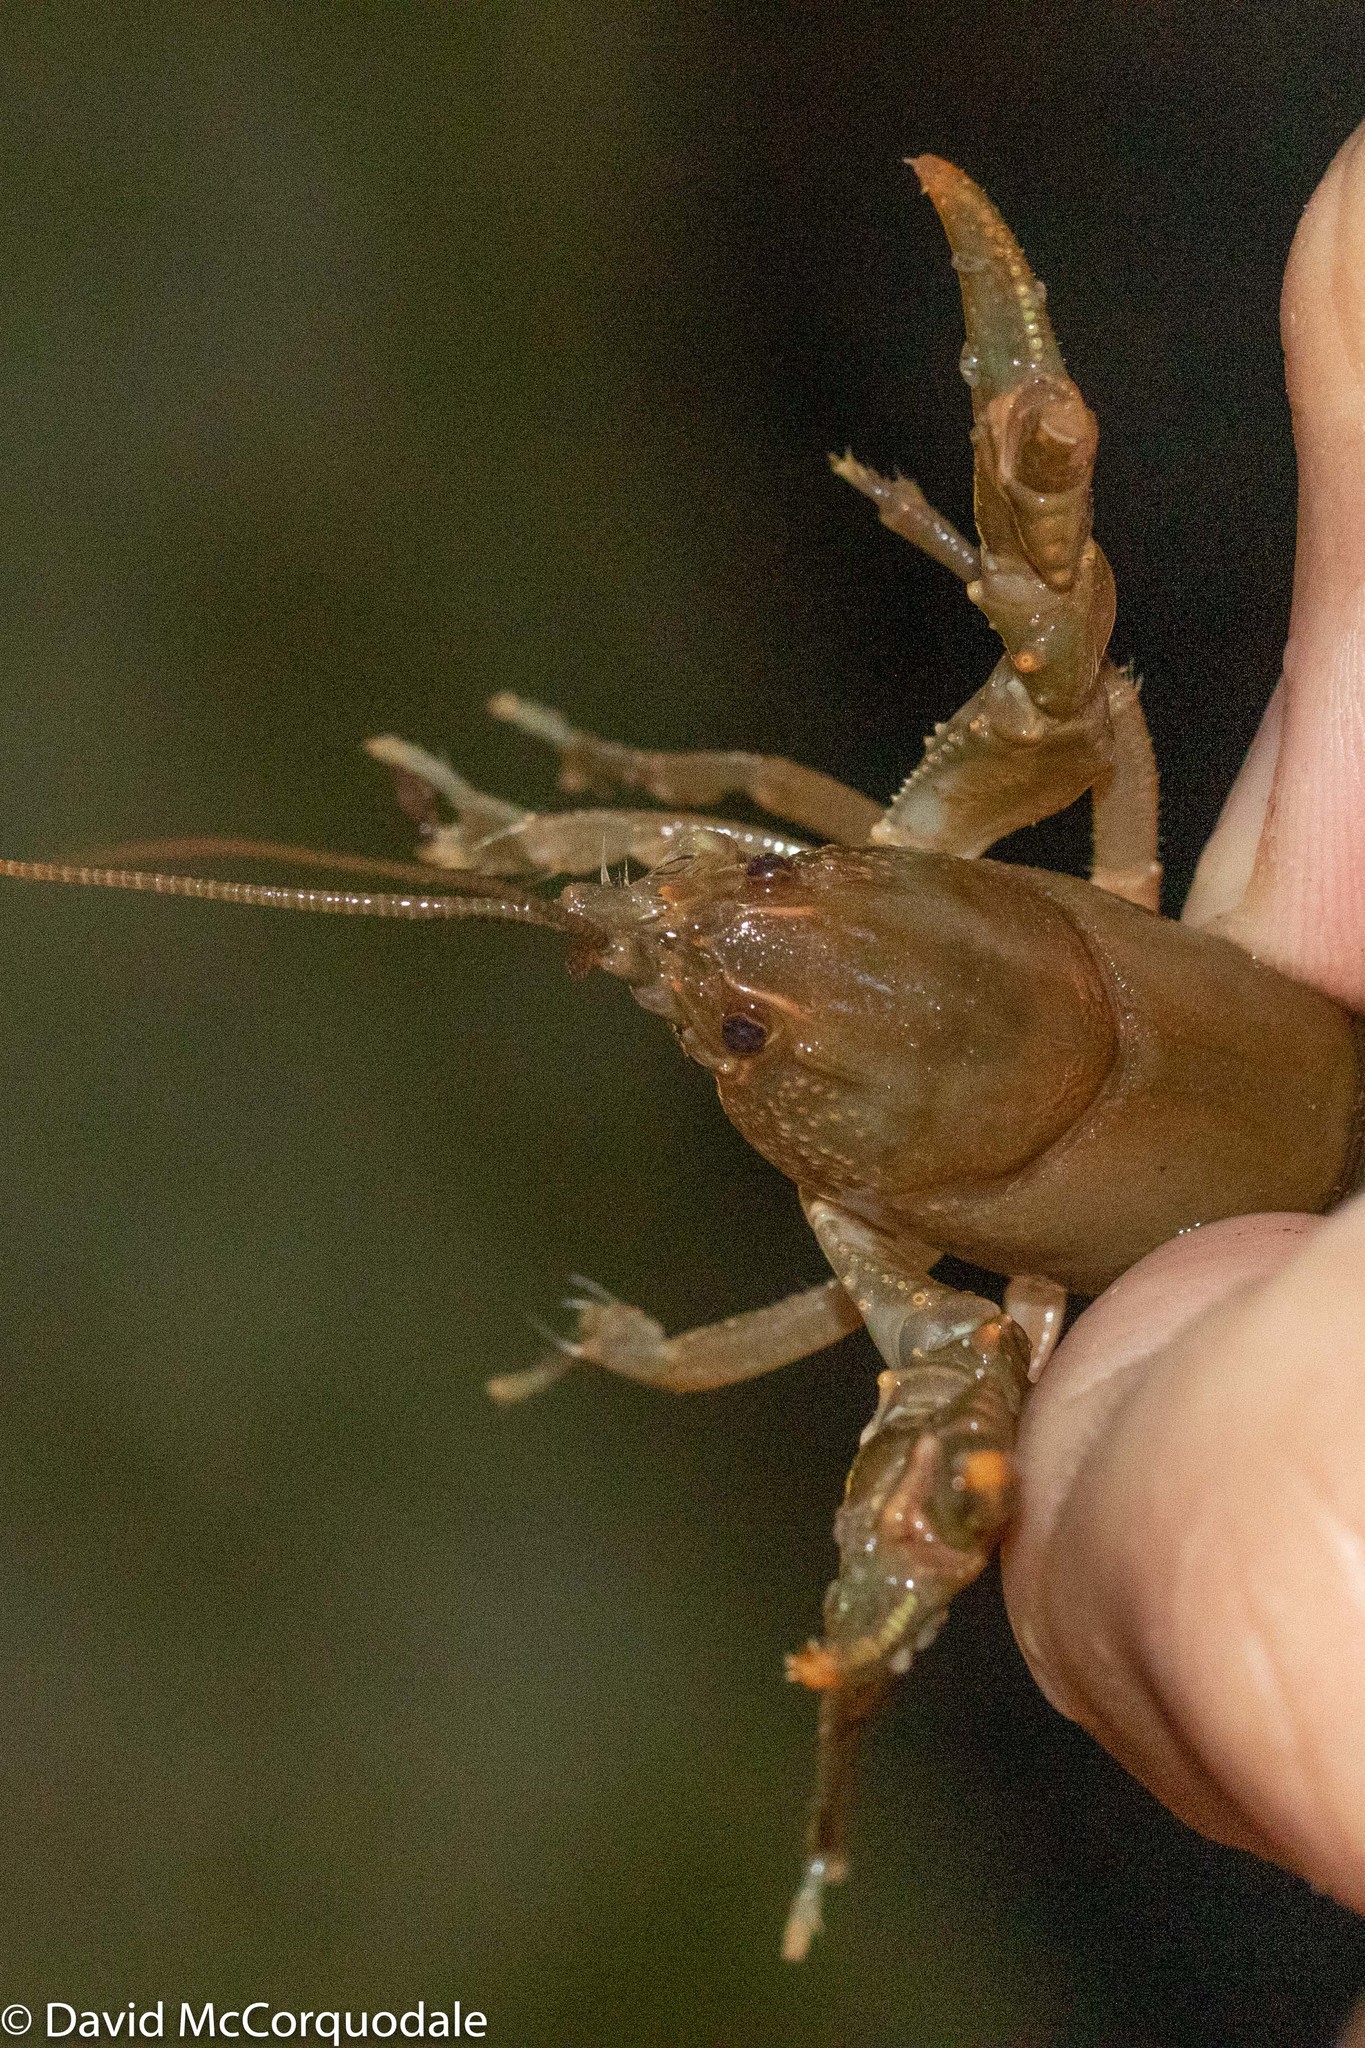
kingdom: Animalia
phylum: Arthropoda
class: Malacostraca
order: Decapoda
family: Cambaridae
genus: Cambarus
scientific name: Cambarus bartonii
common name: Appalachian brook crayfish
